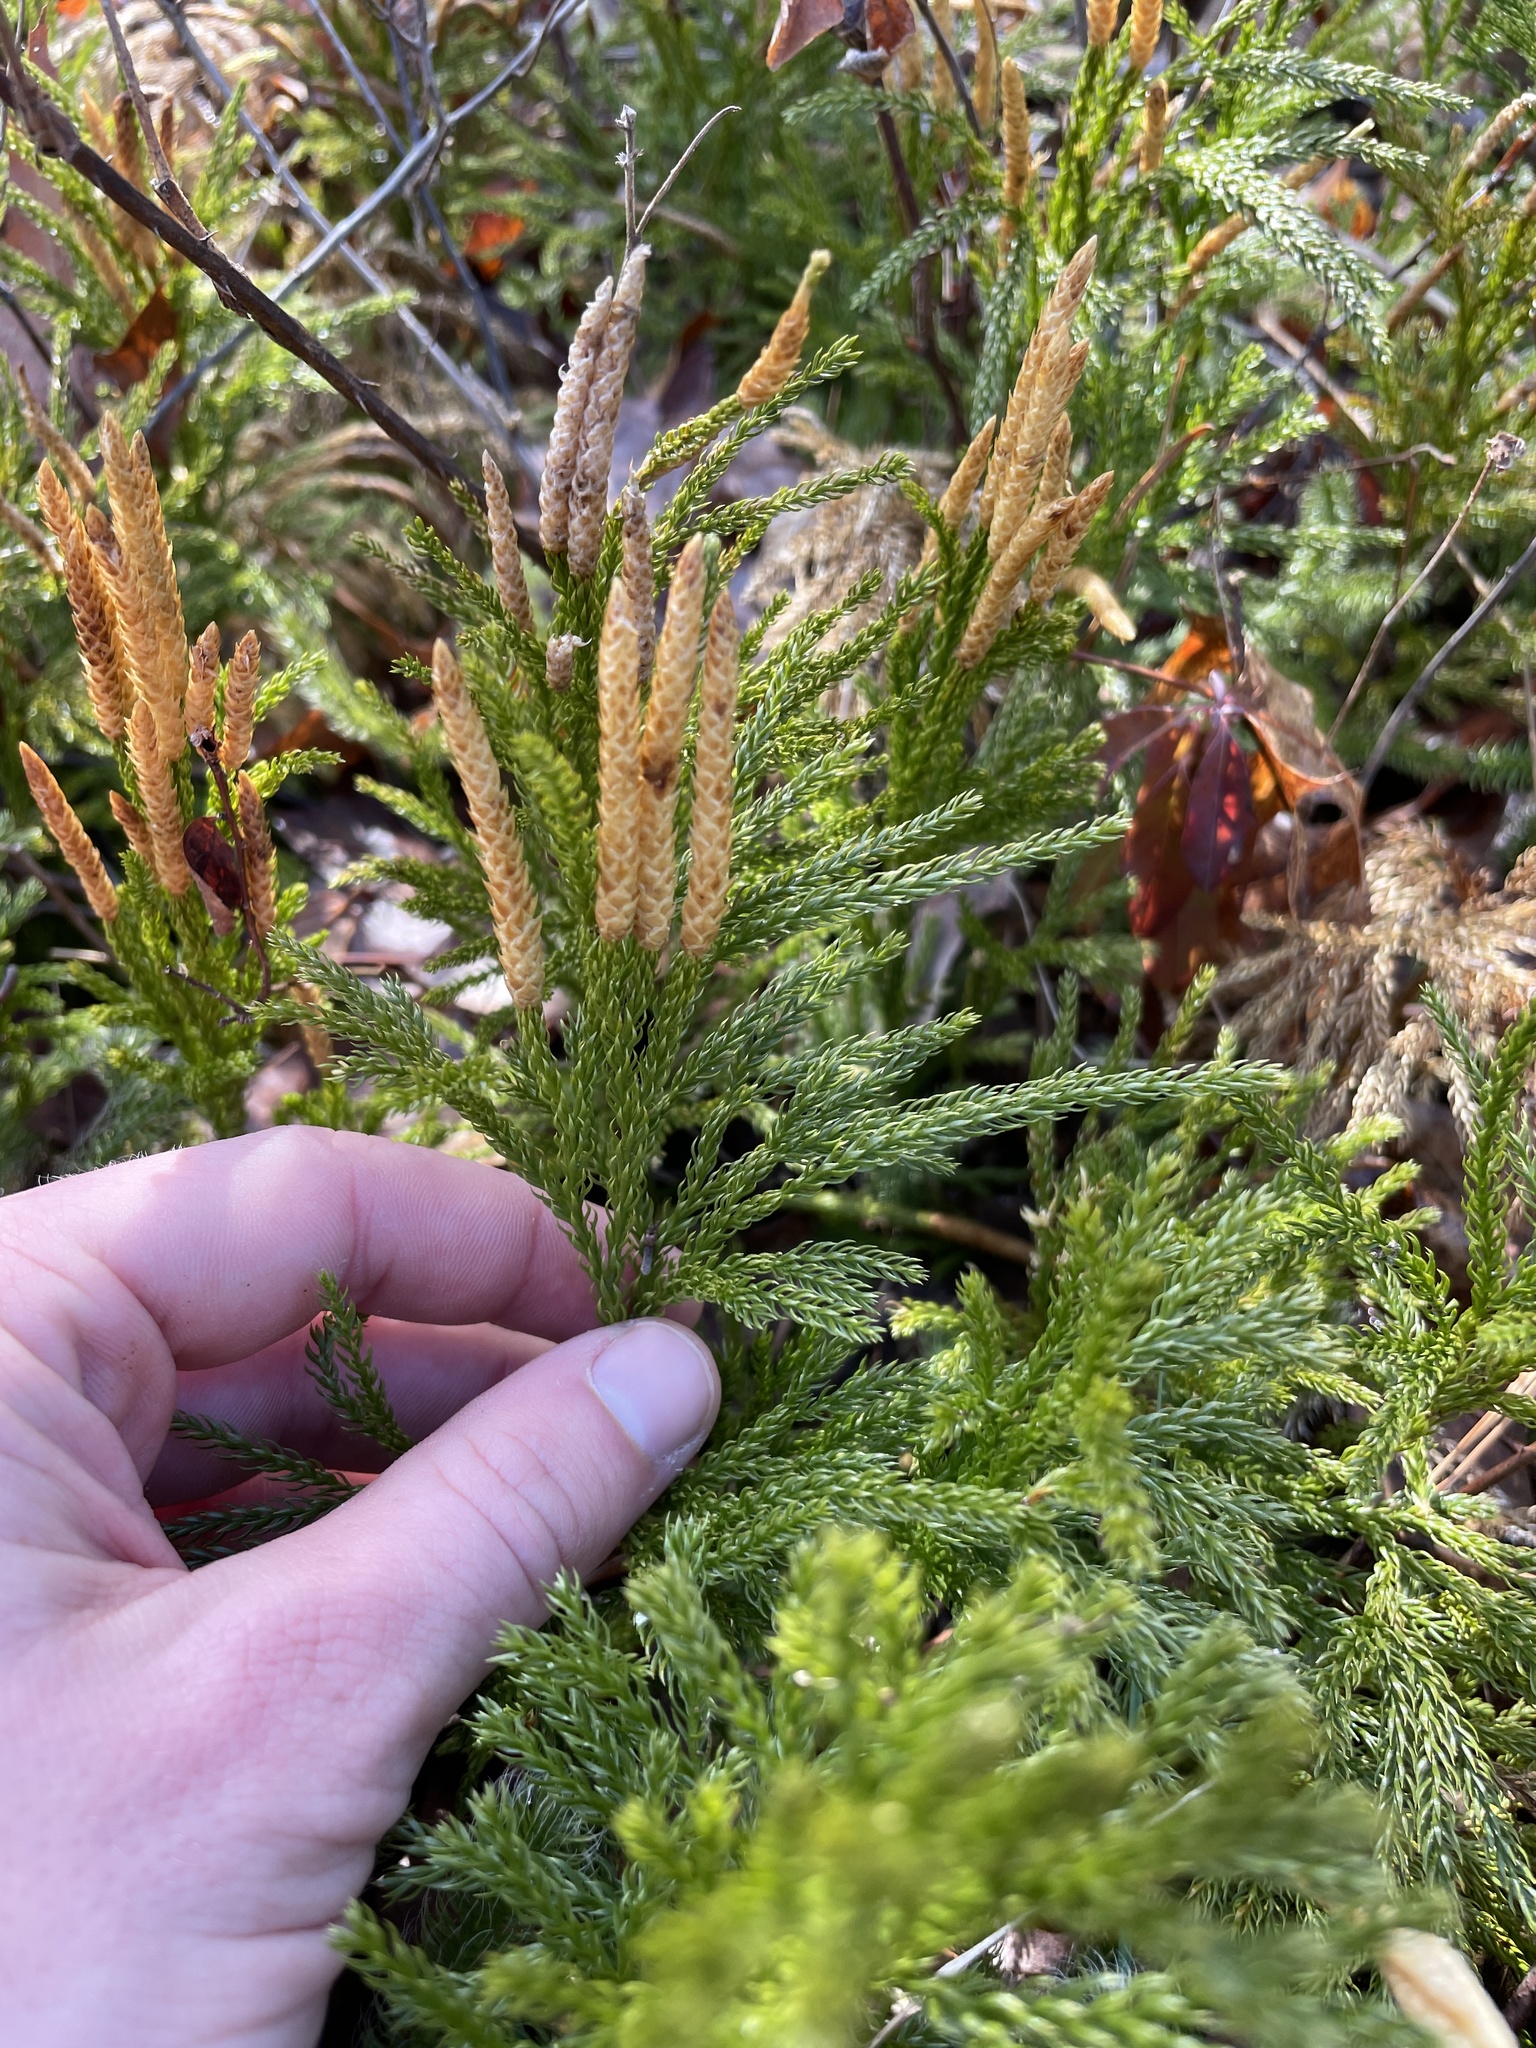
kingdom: Plantae
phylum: Tracheophyta
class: Lycopodiopsida
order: Lycopodiales
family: Lycopodiaceae
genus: Dendrolycopodium
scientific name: Dendrolycopodium hickeyi
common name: Hickey's clubmoss
